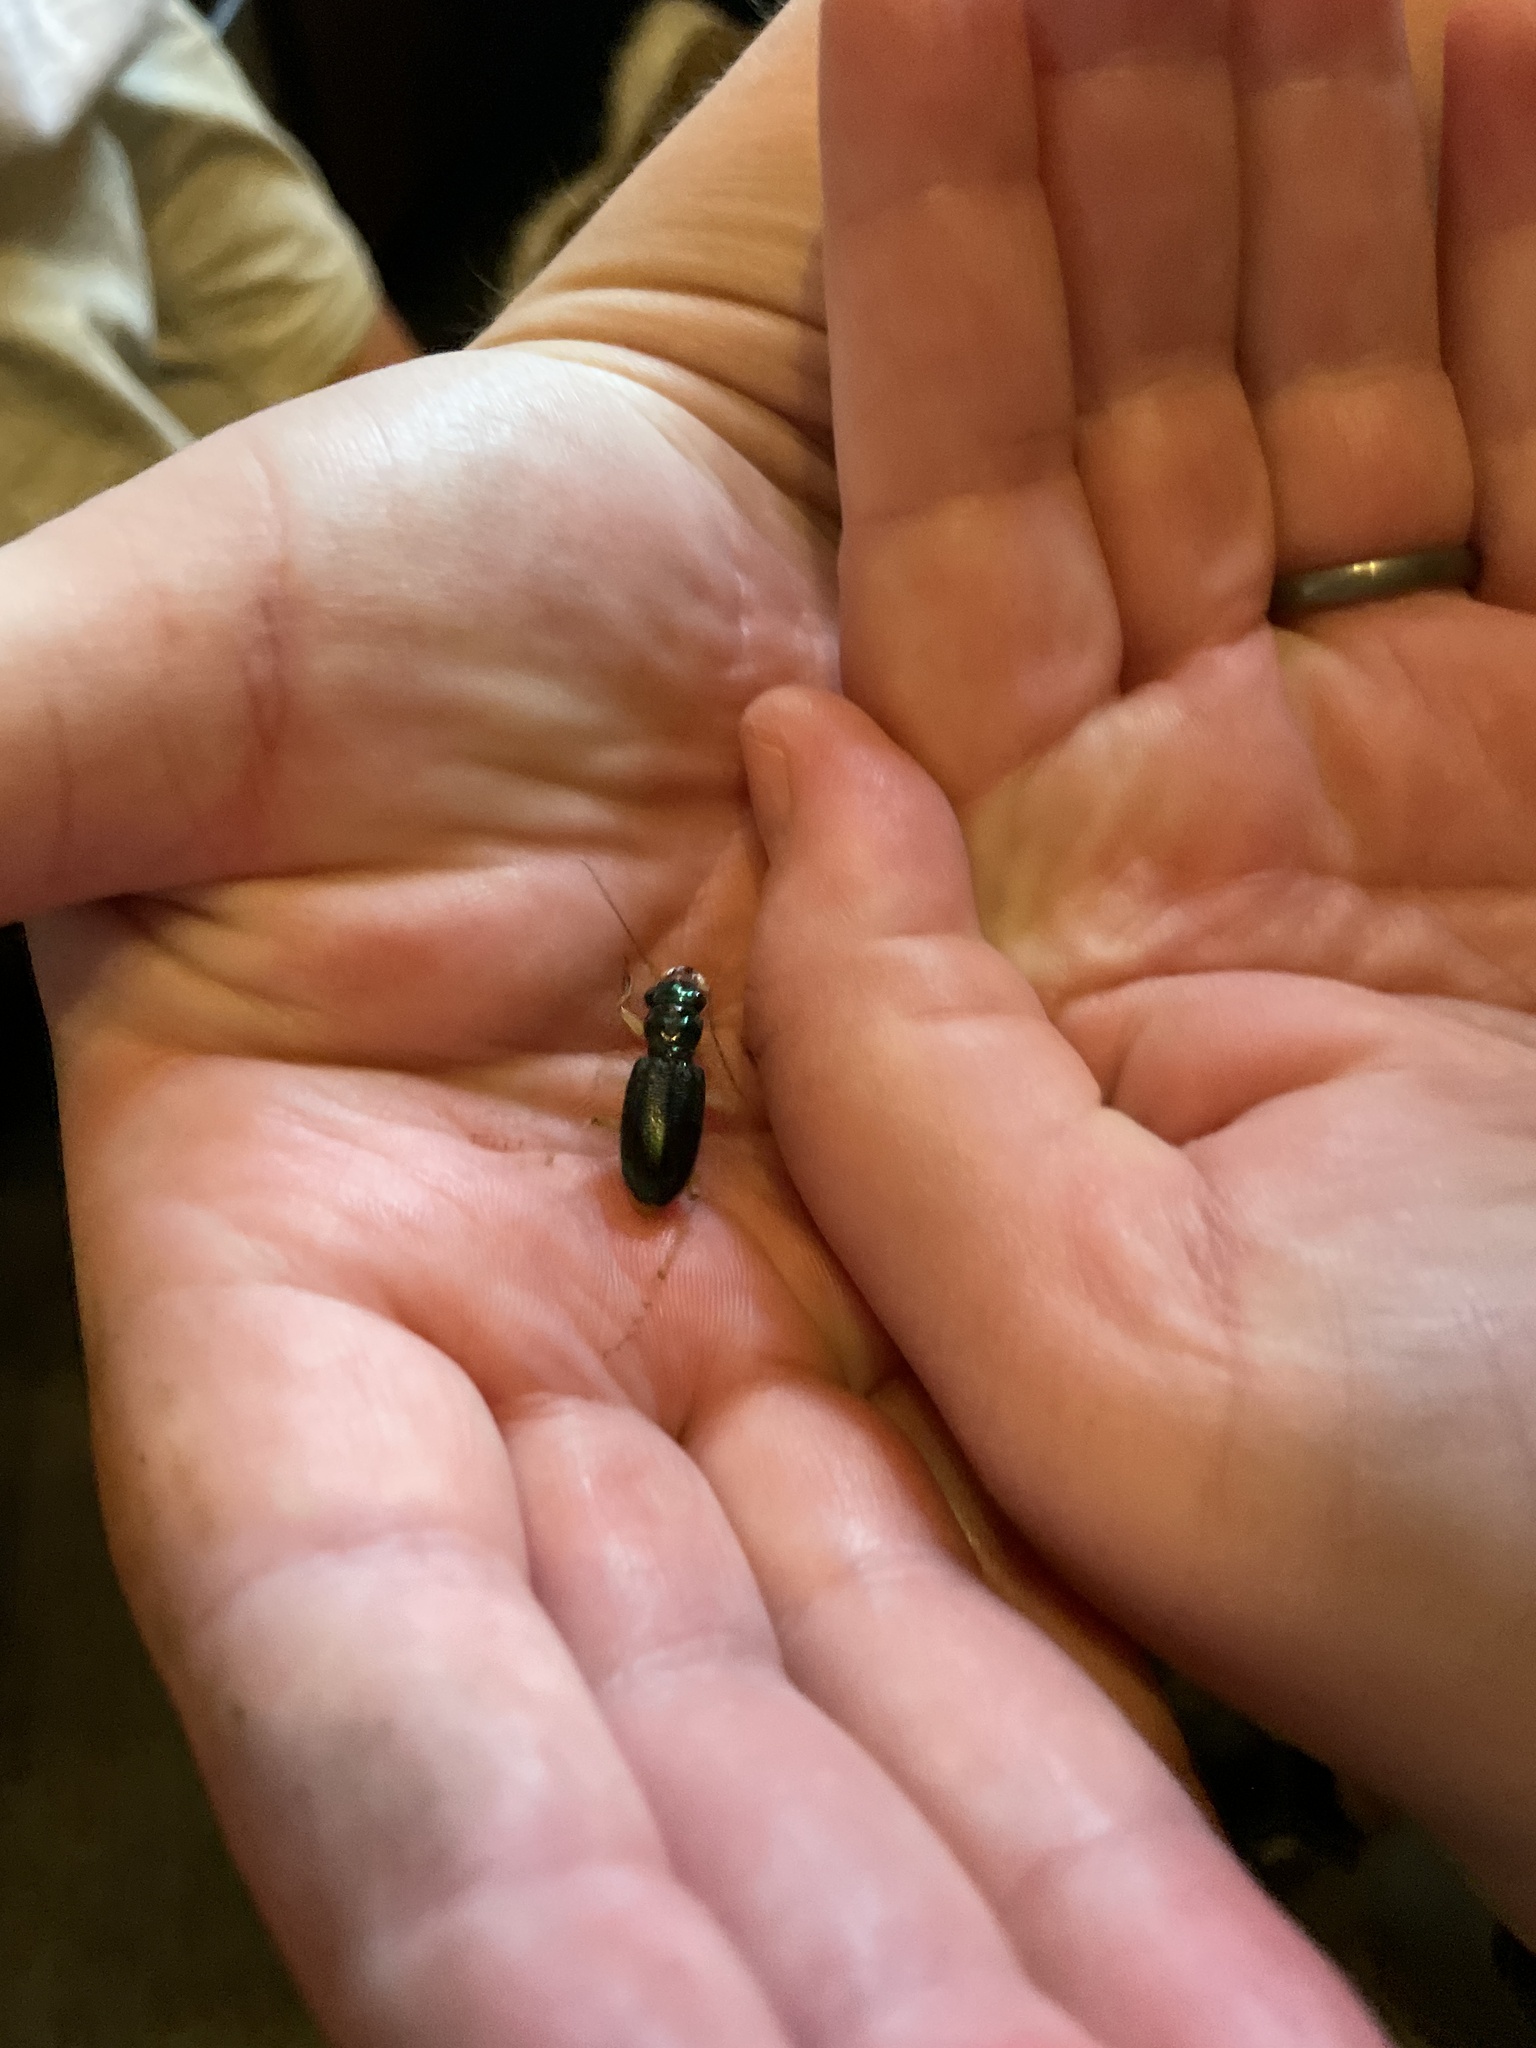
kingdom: Animalia
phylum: Arthropoda
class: Insecta
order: Coleoptera
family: Carabidae
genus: Tetracha
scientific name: Tetracha virginica
